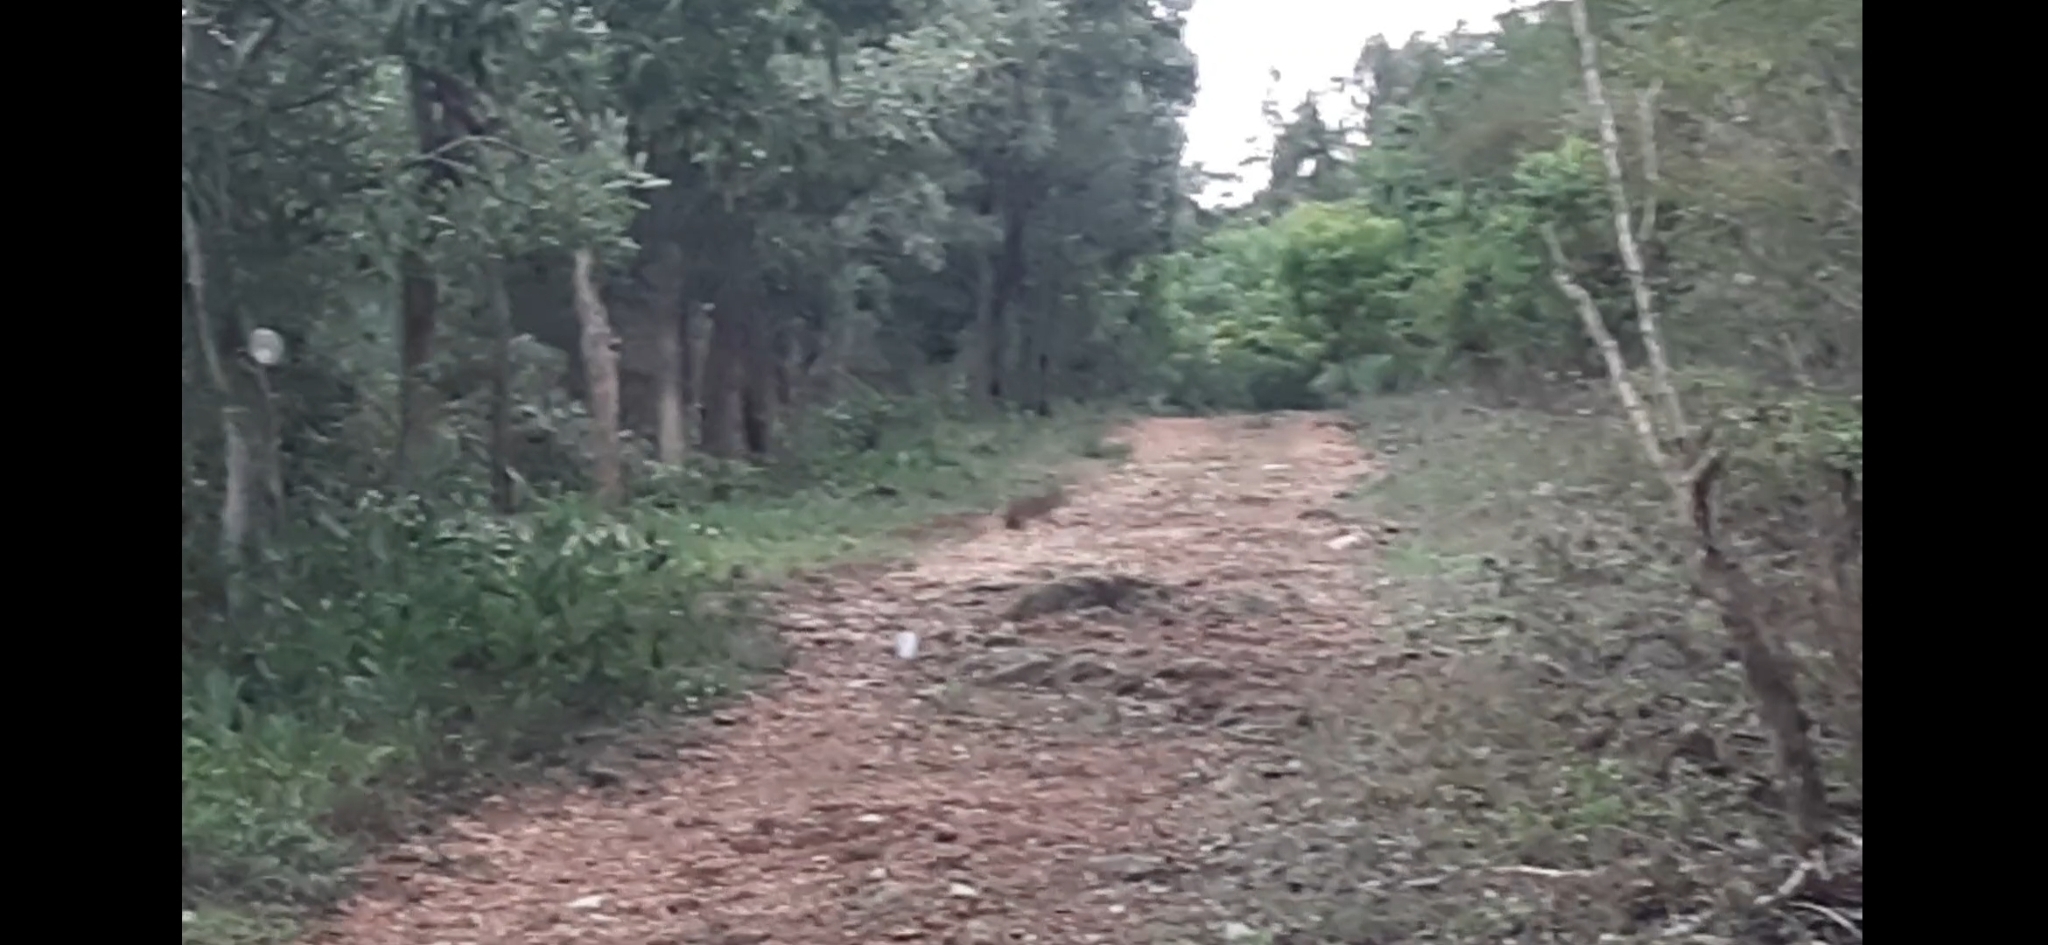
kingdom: Animalia
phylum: Chordata
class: Mammalia
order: Lagomorpha
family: Leporidae
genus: Lepus
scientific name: Lepus nigricollis
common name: Indian hare
